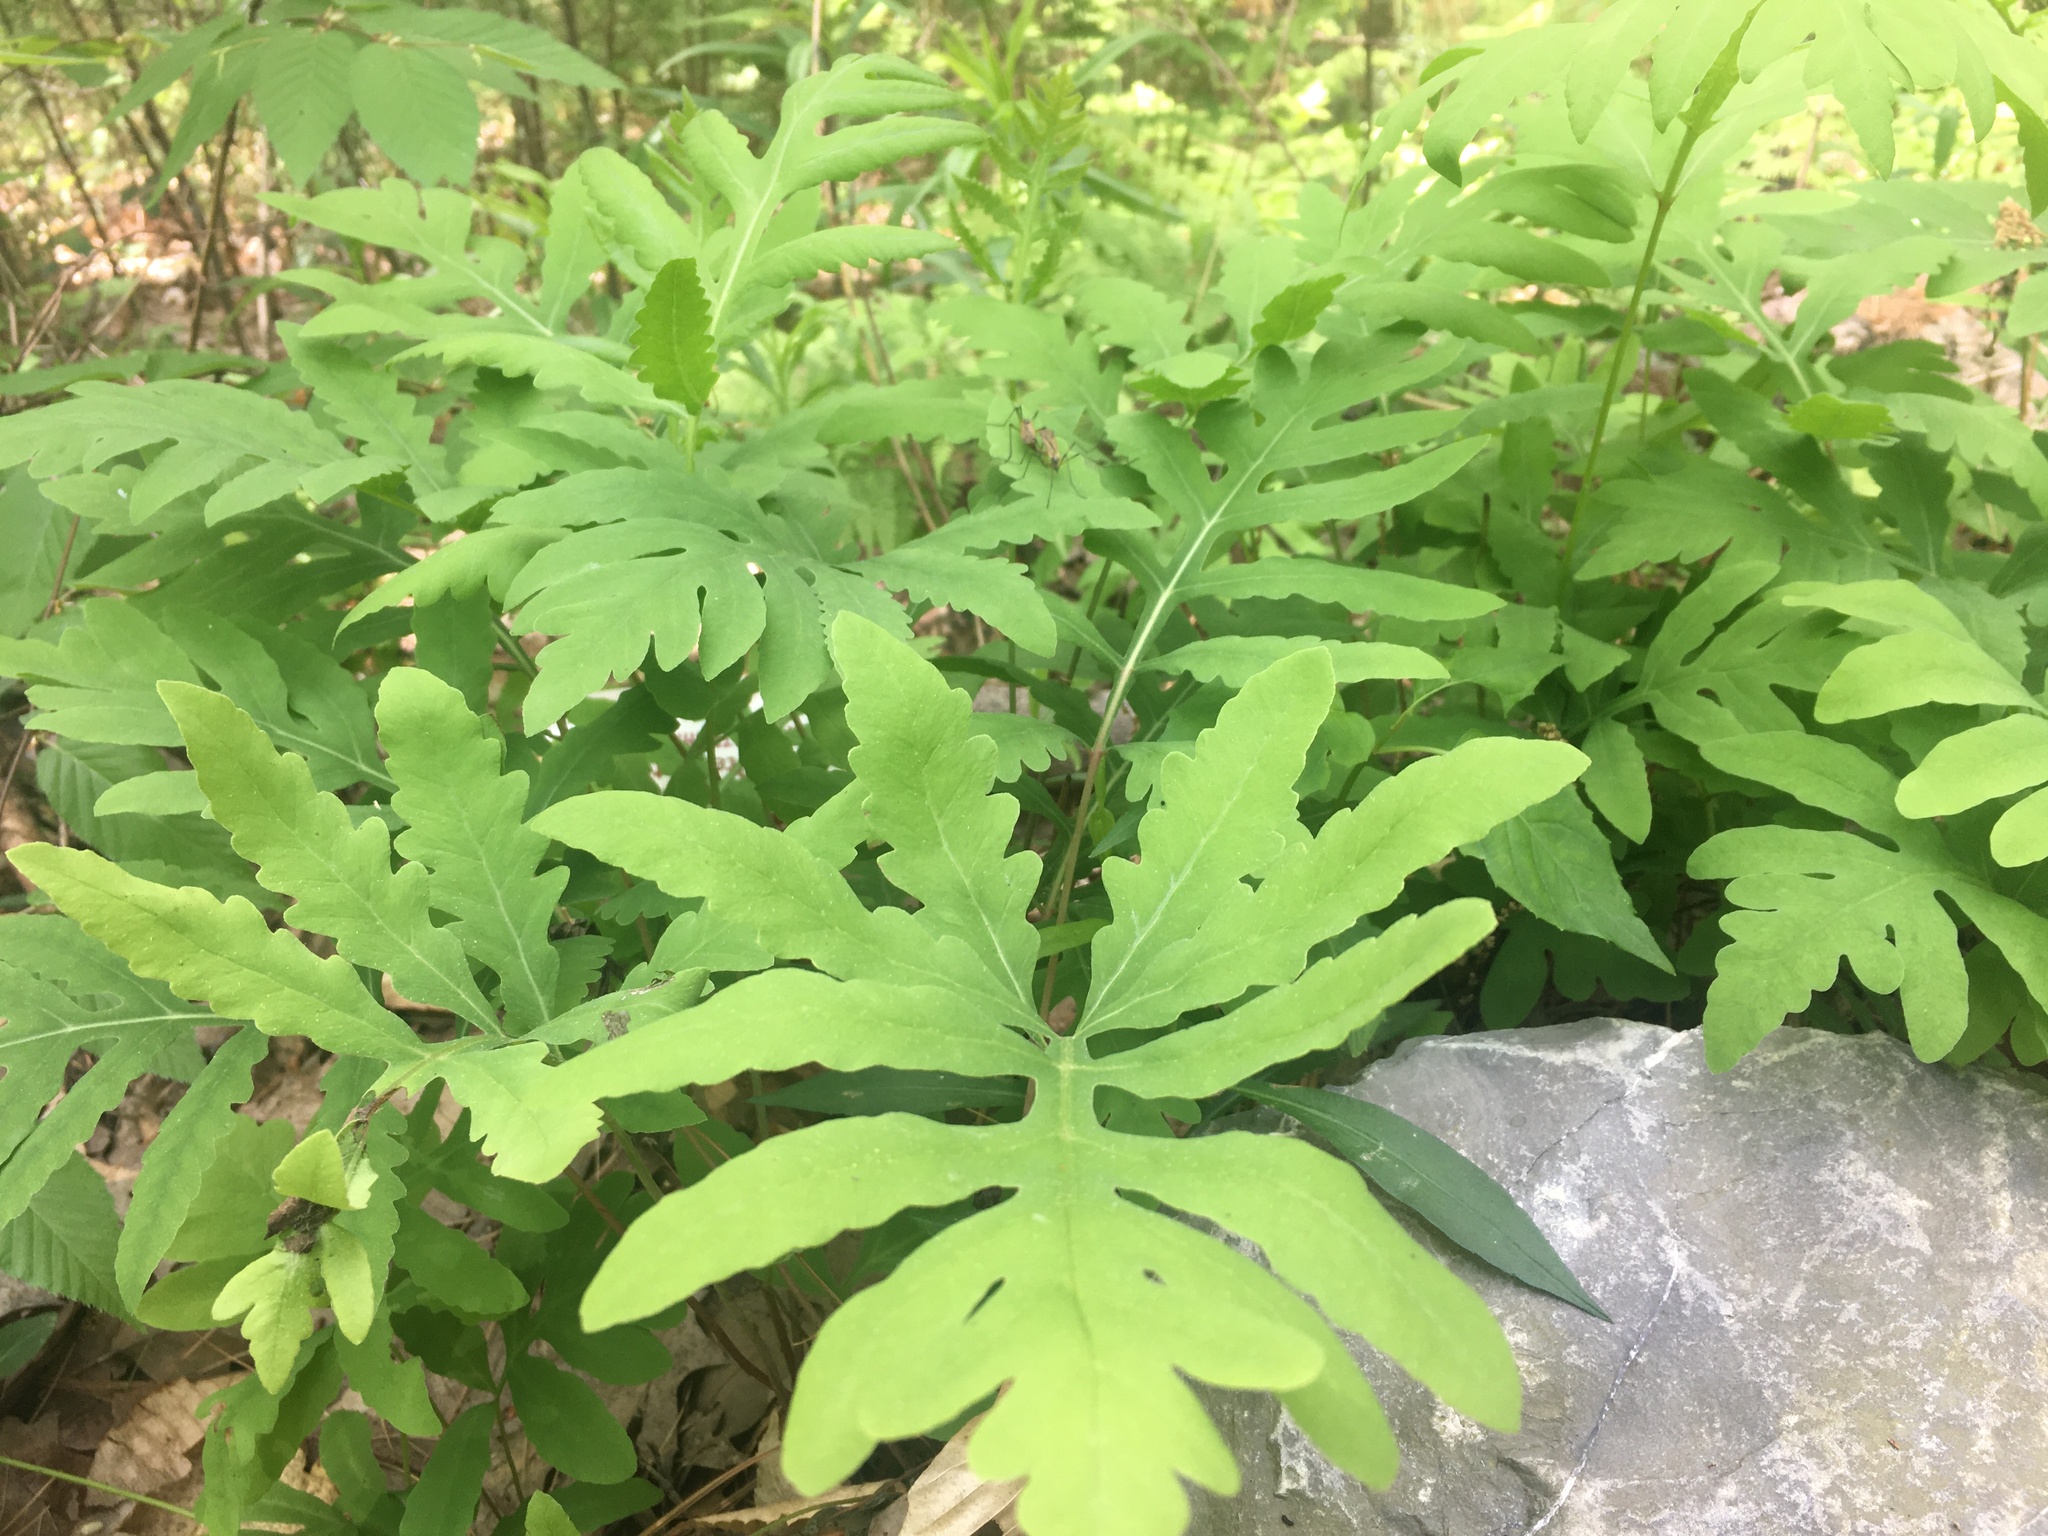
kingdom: Plantae
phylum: Tracheophyta
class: Polypodiopsida
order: Polypodiales
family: Onocleaceae
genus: Onoclea
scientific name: Onoclea sensibilis
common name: Sensitive fern
